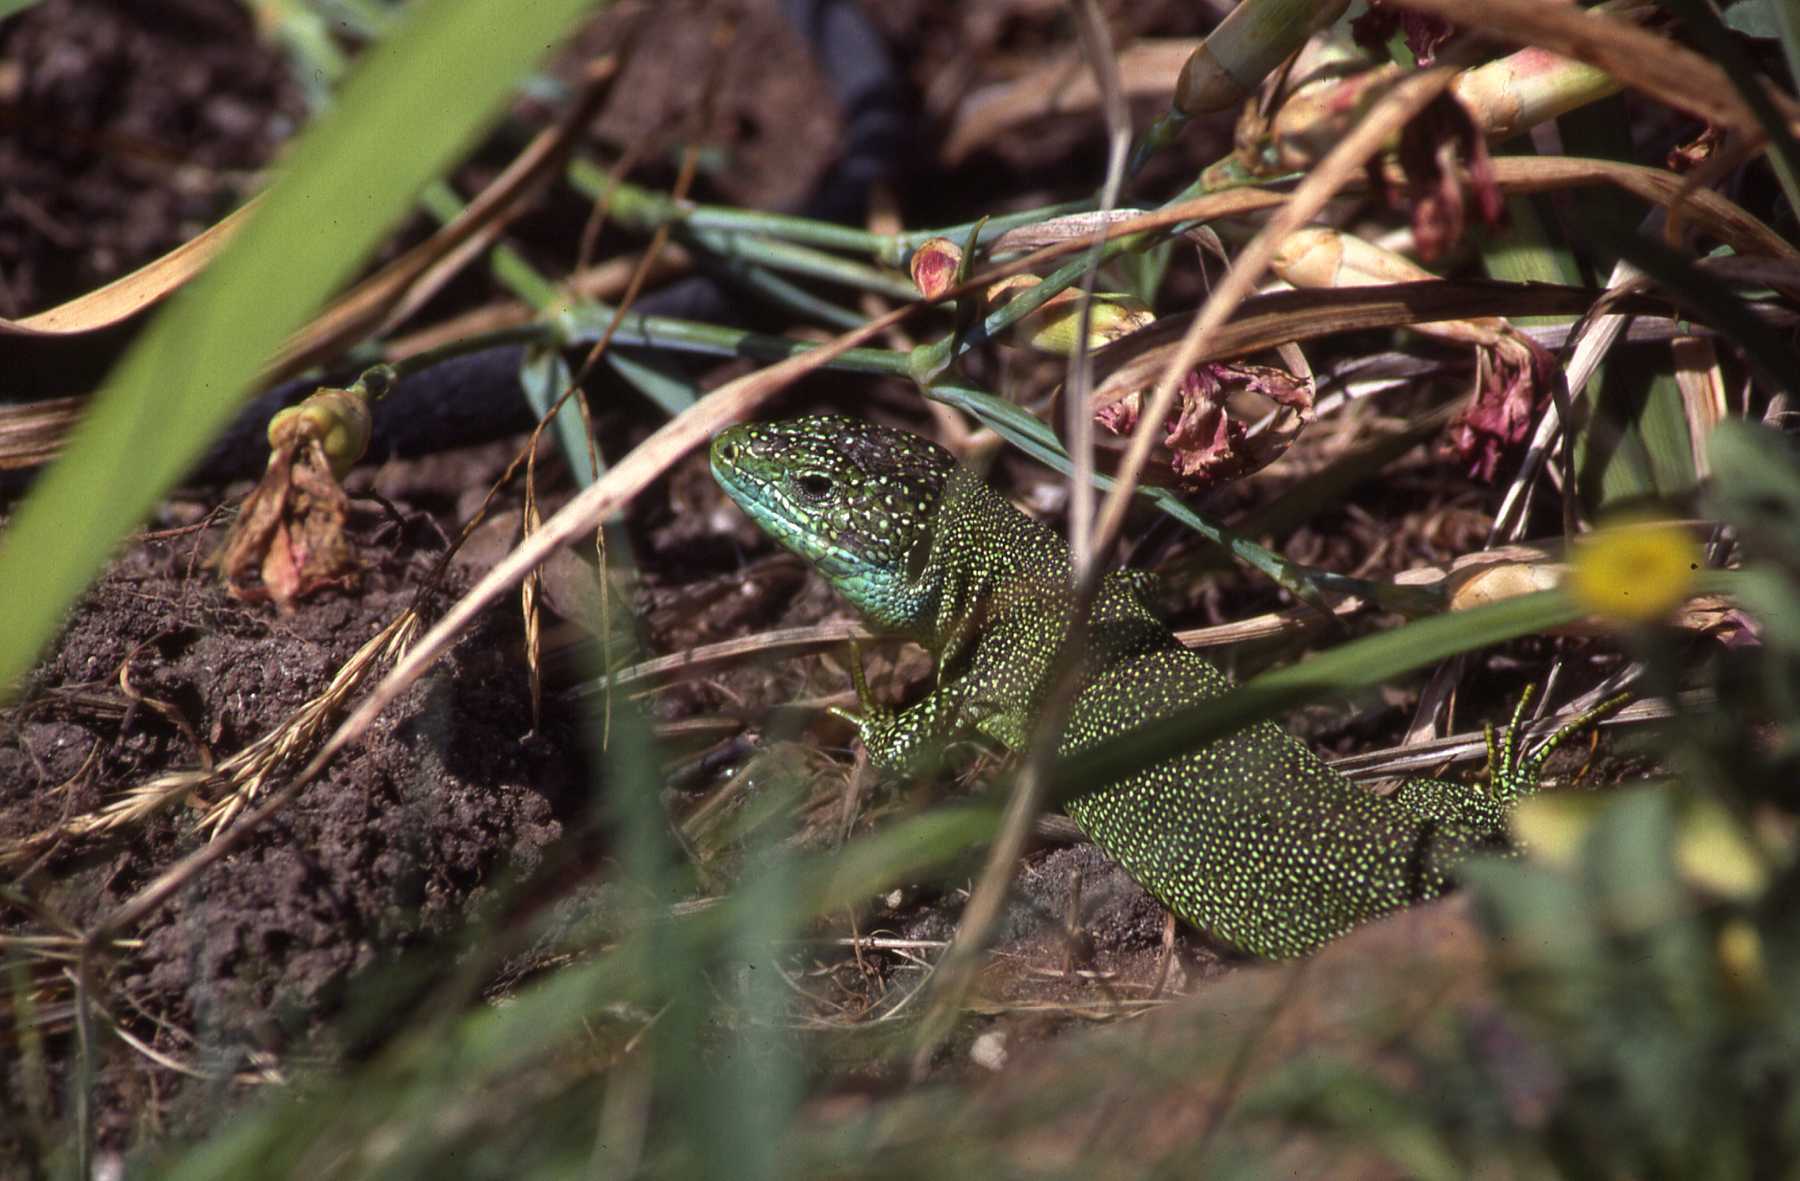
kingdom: Animalia
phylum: Chordata
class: Squamata
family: Lacertidae
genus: Lacerta
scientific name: Lacerta bilineata
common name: Western green lizard
